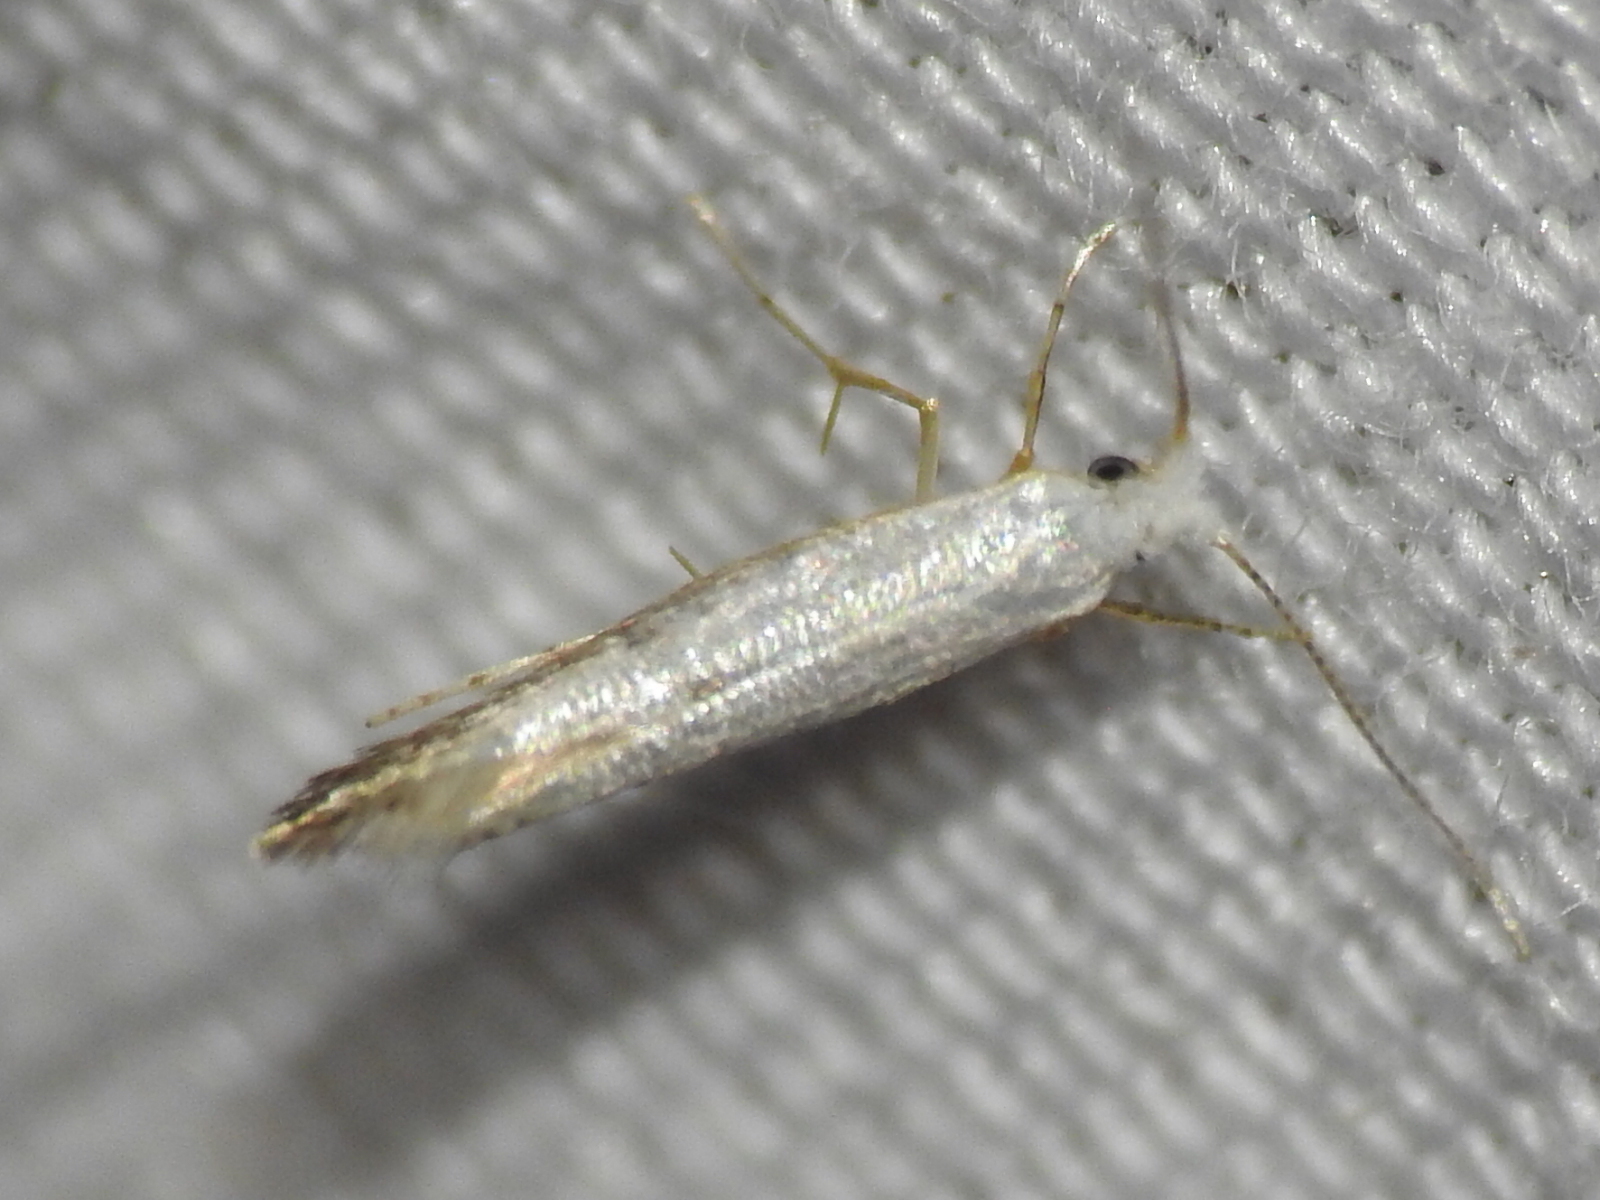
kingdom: Animalia
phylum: Arthropoda
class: Insecta
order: Lepidoptera
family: Argyresthiidae
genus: Argyresthia
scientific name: Argyresthia subreticulata
